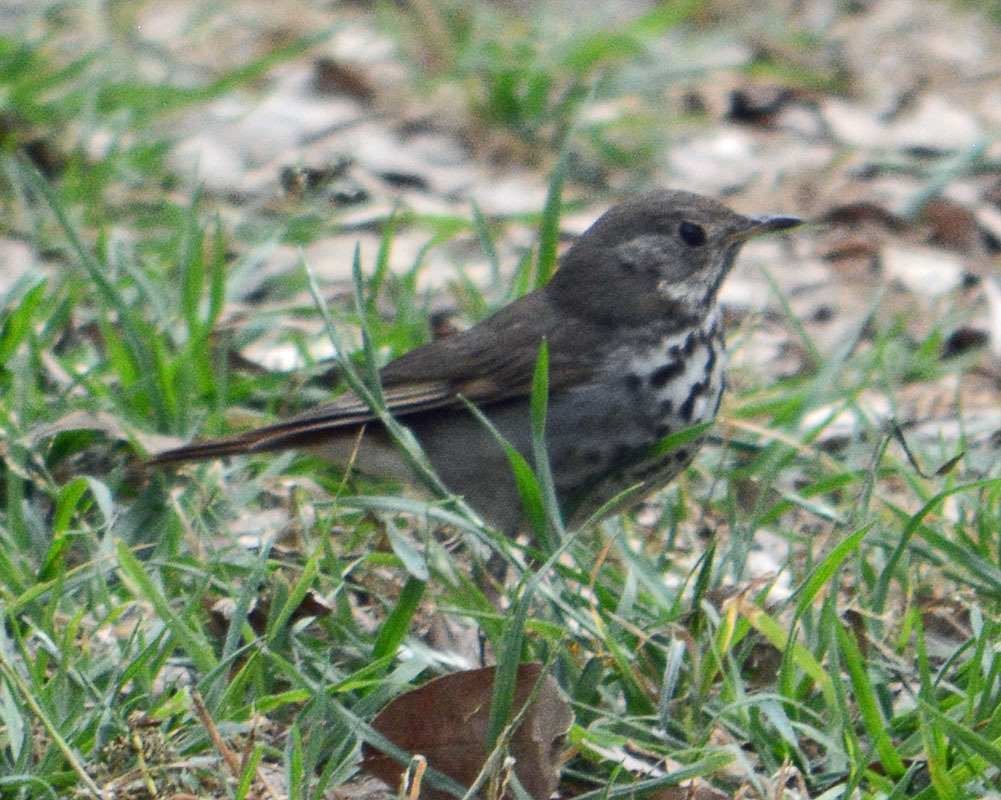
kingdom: Animalia
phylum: Chordata
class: Aves
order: Passeriformes
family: Turdidae
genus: Catharus
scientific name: Catharus guttatus
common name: Hermit thrush
